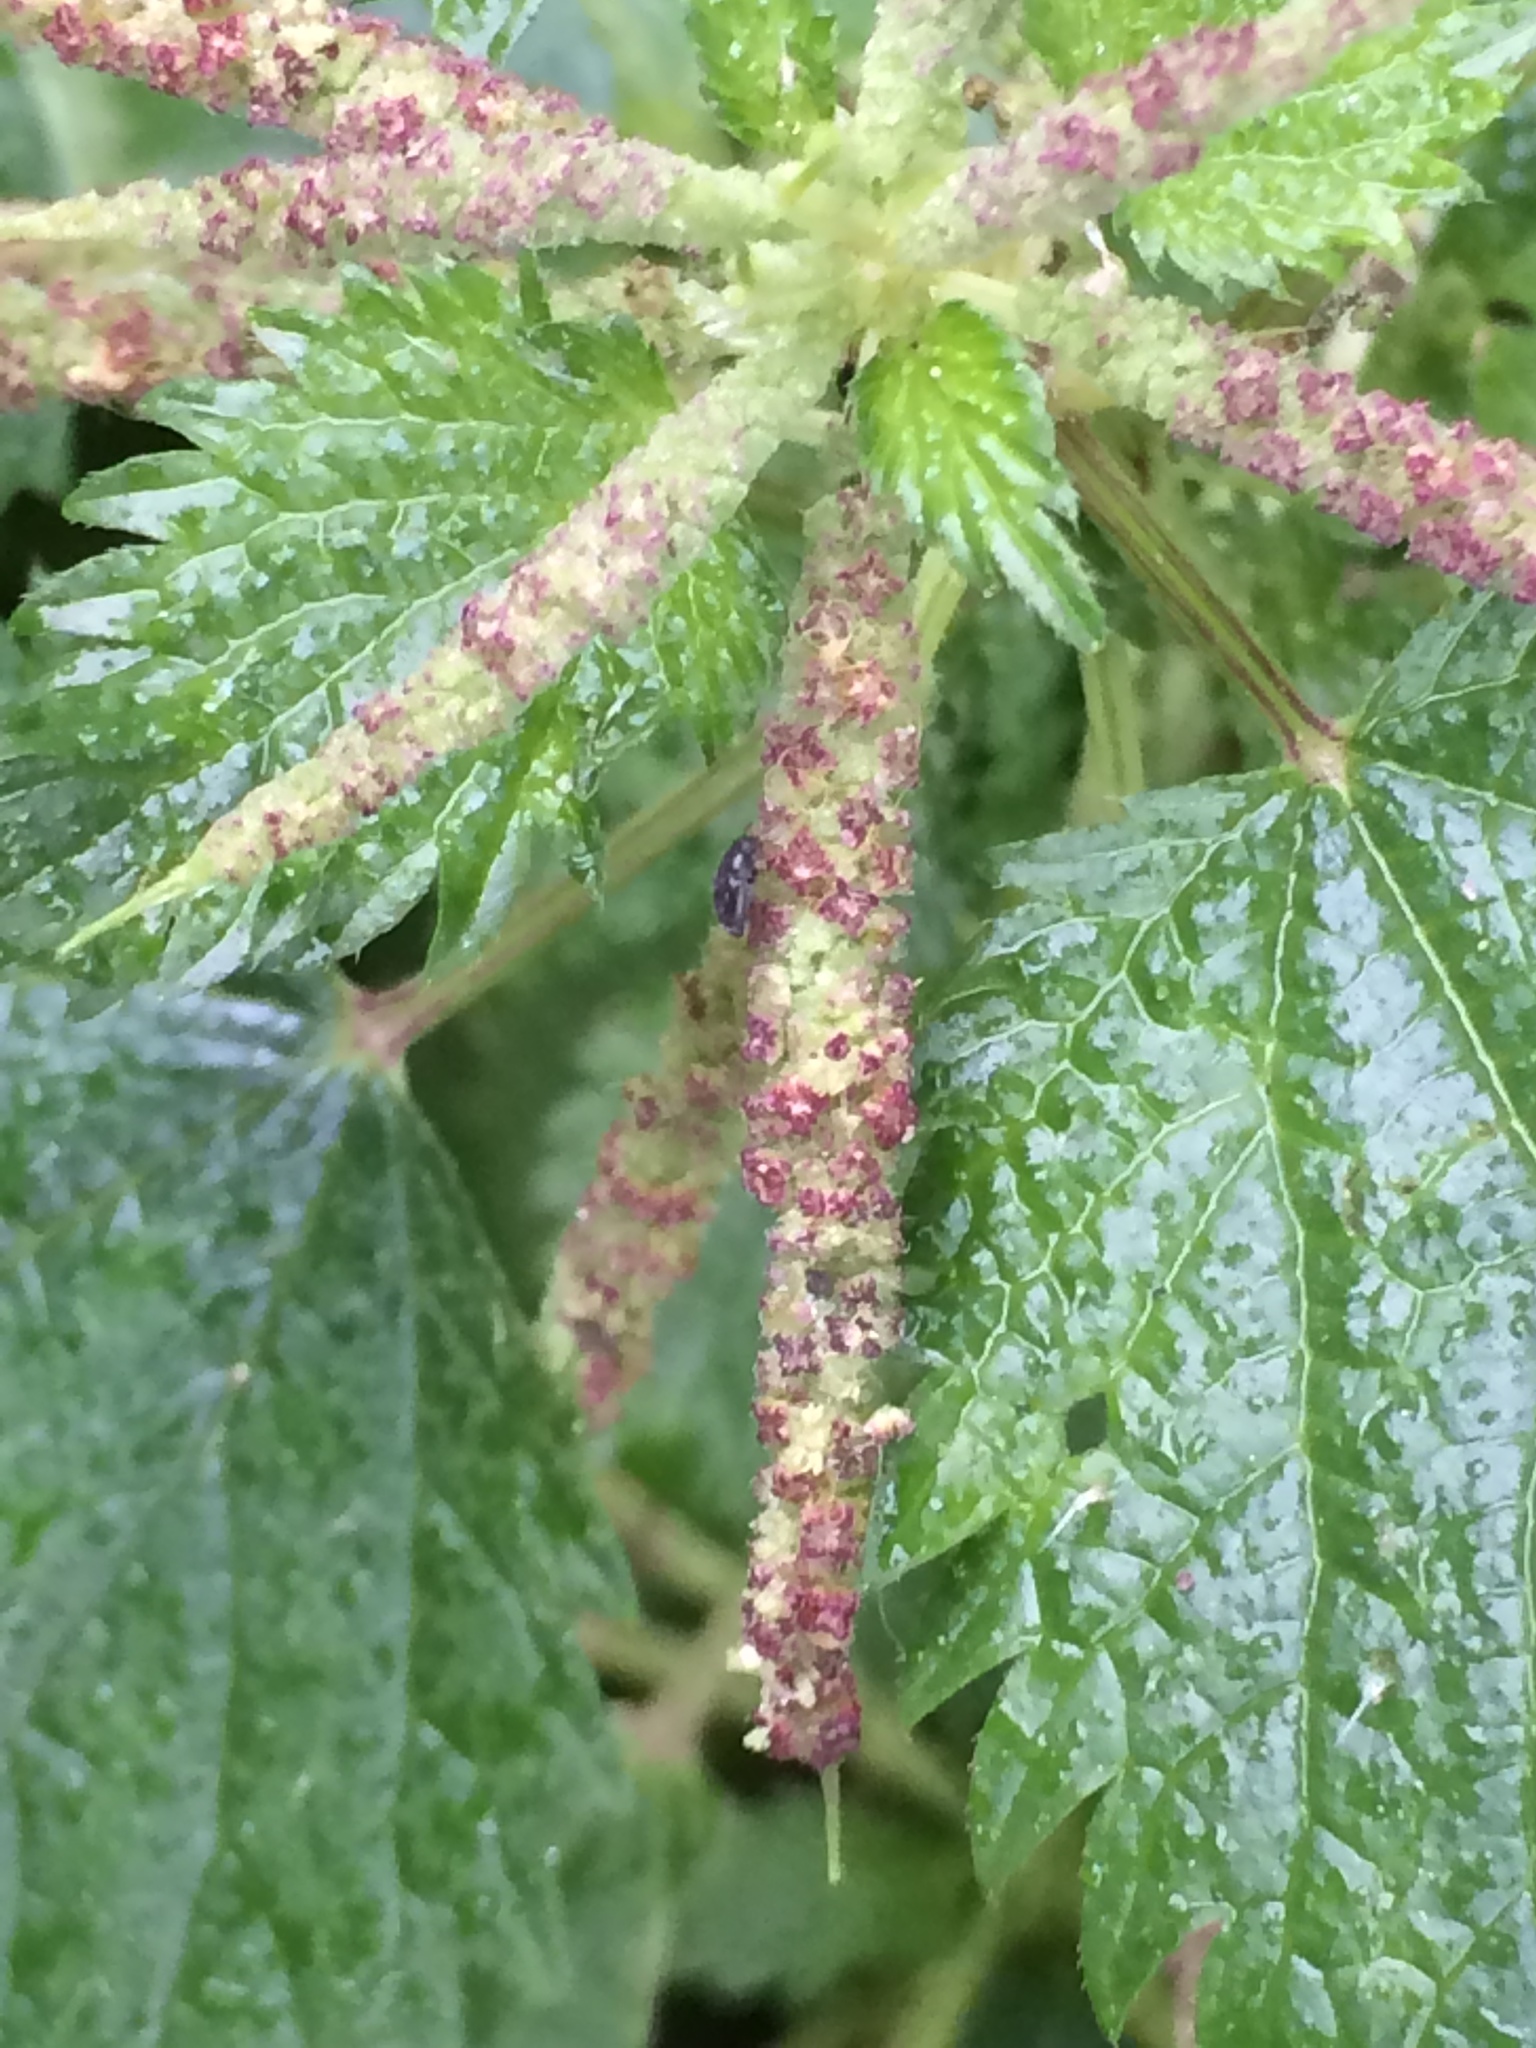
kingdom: Plantae
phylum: Tracheophyta
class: Magnoliopsida
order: Rosales
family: Urticaceae
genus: Urtica
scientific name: Urtica membranacea
